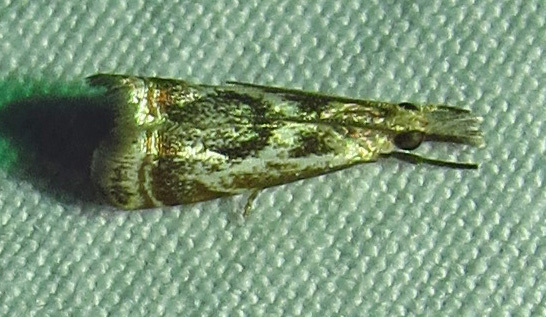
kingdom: Animalia
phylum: Arthropoda
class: Insecta
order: Lepidoptera
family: Crambidae
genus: Microcrambus
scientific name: Microcrambus elegans
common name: Elegant grass-veneer
